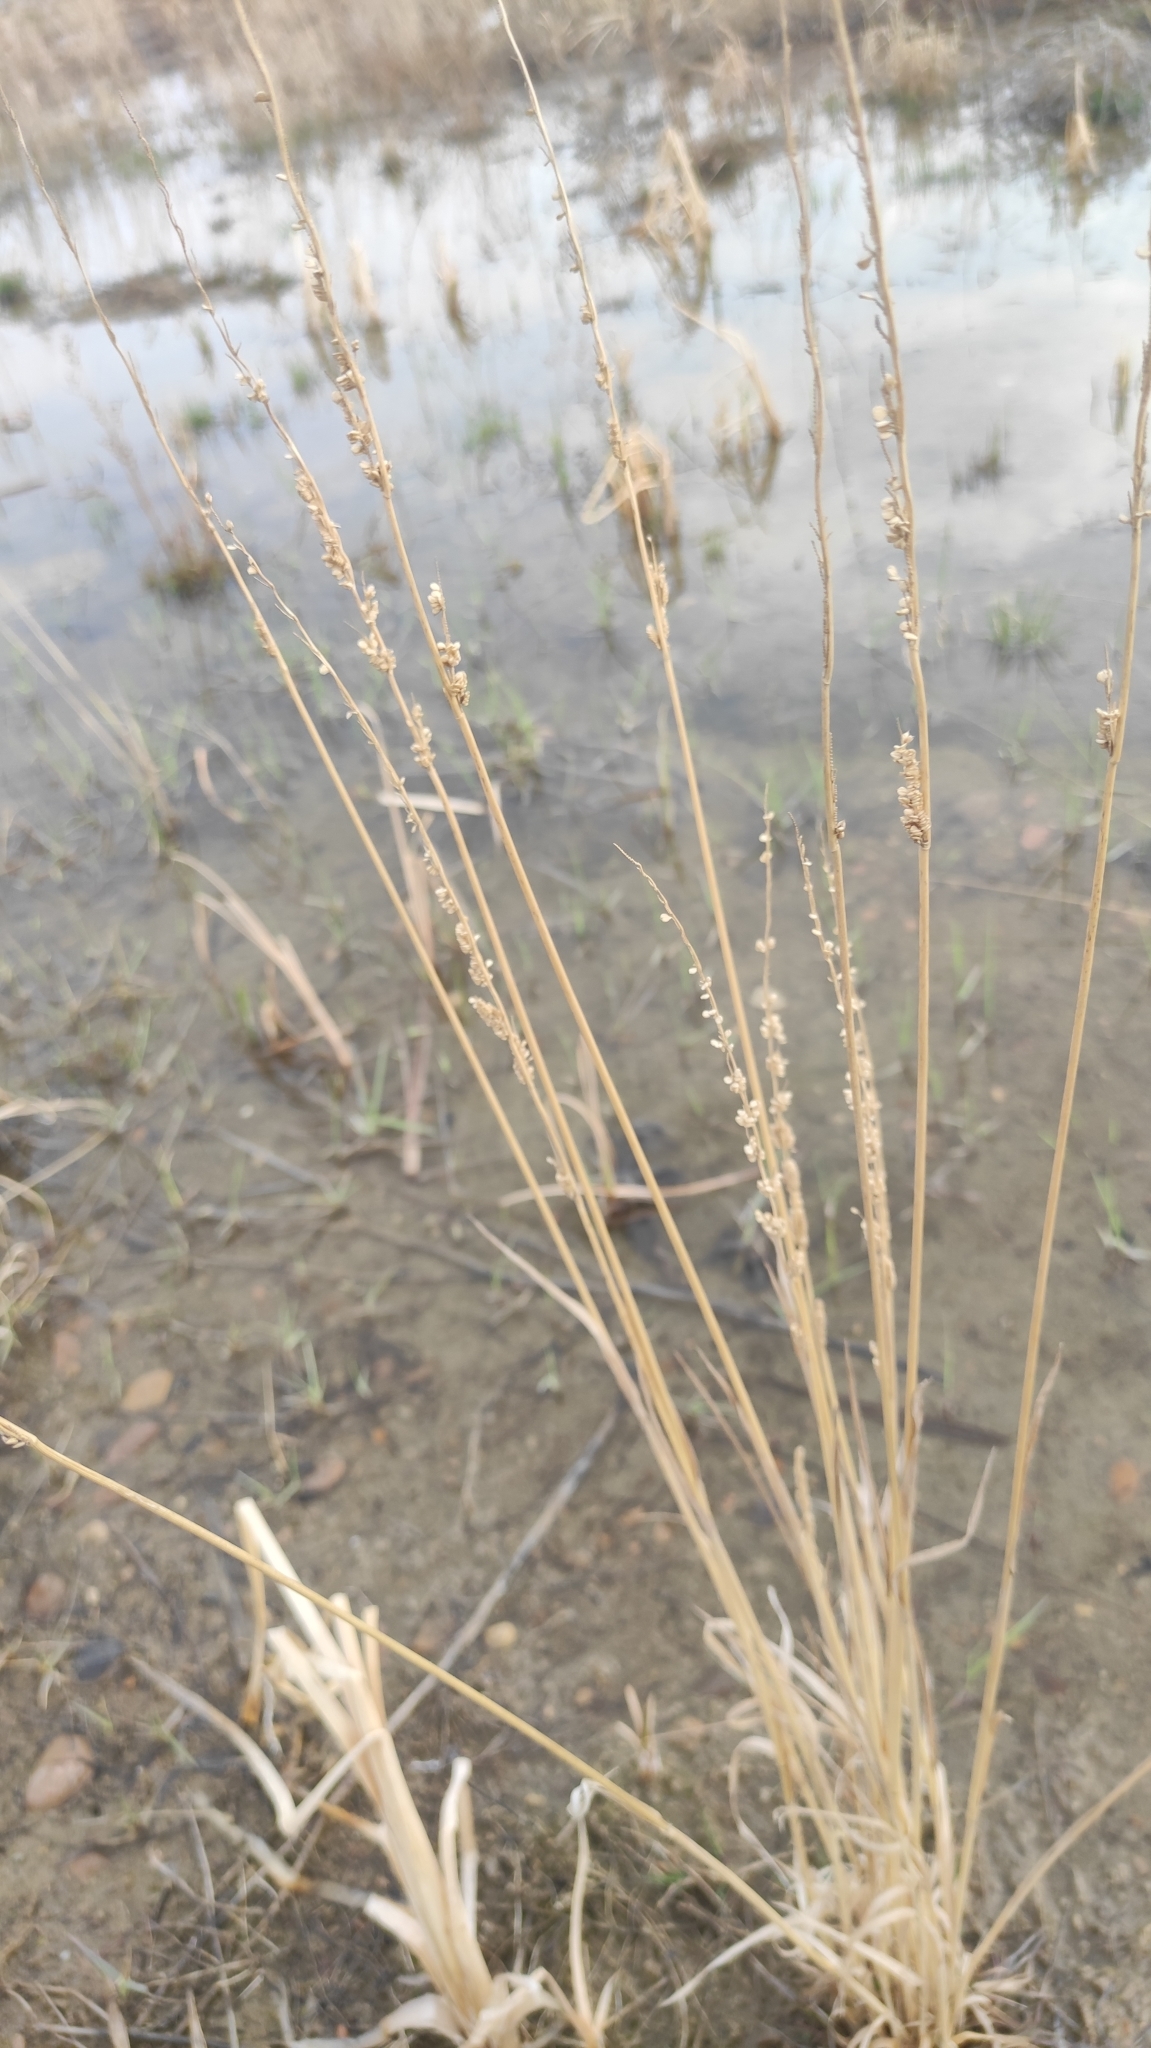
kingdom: Plantae
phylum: Tracheophyta
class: Liliopsida
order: Poales
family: Poaceae
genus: Beckmannia
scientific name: Beckmannia syzigachne
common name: American slough-grass
